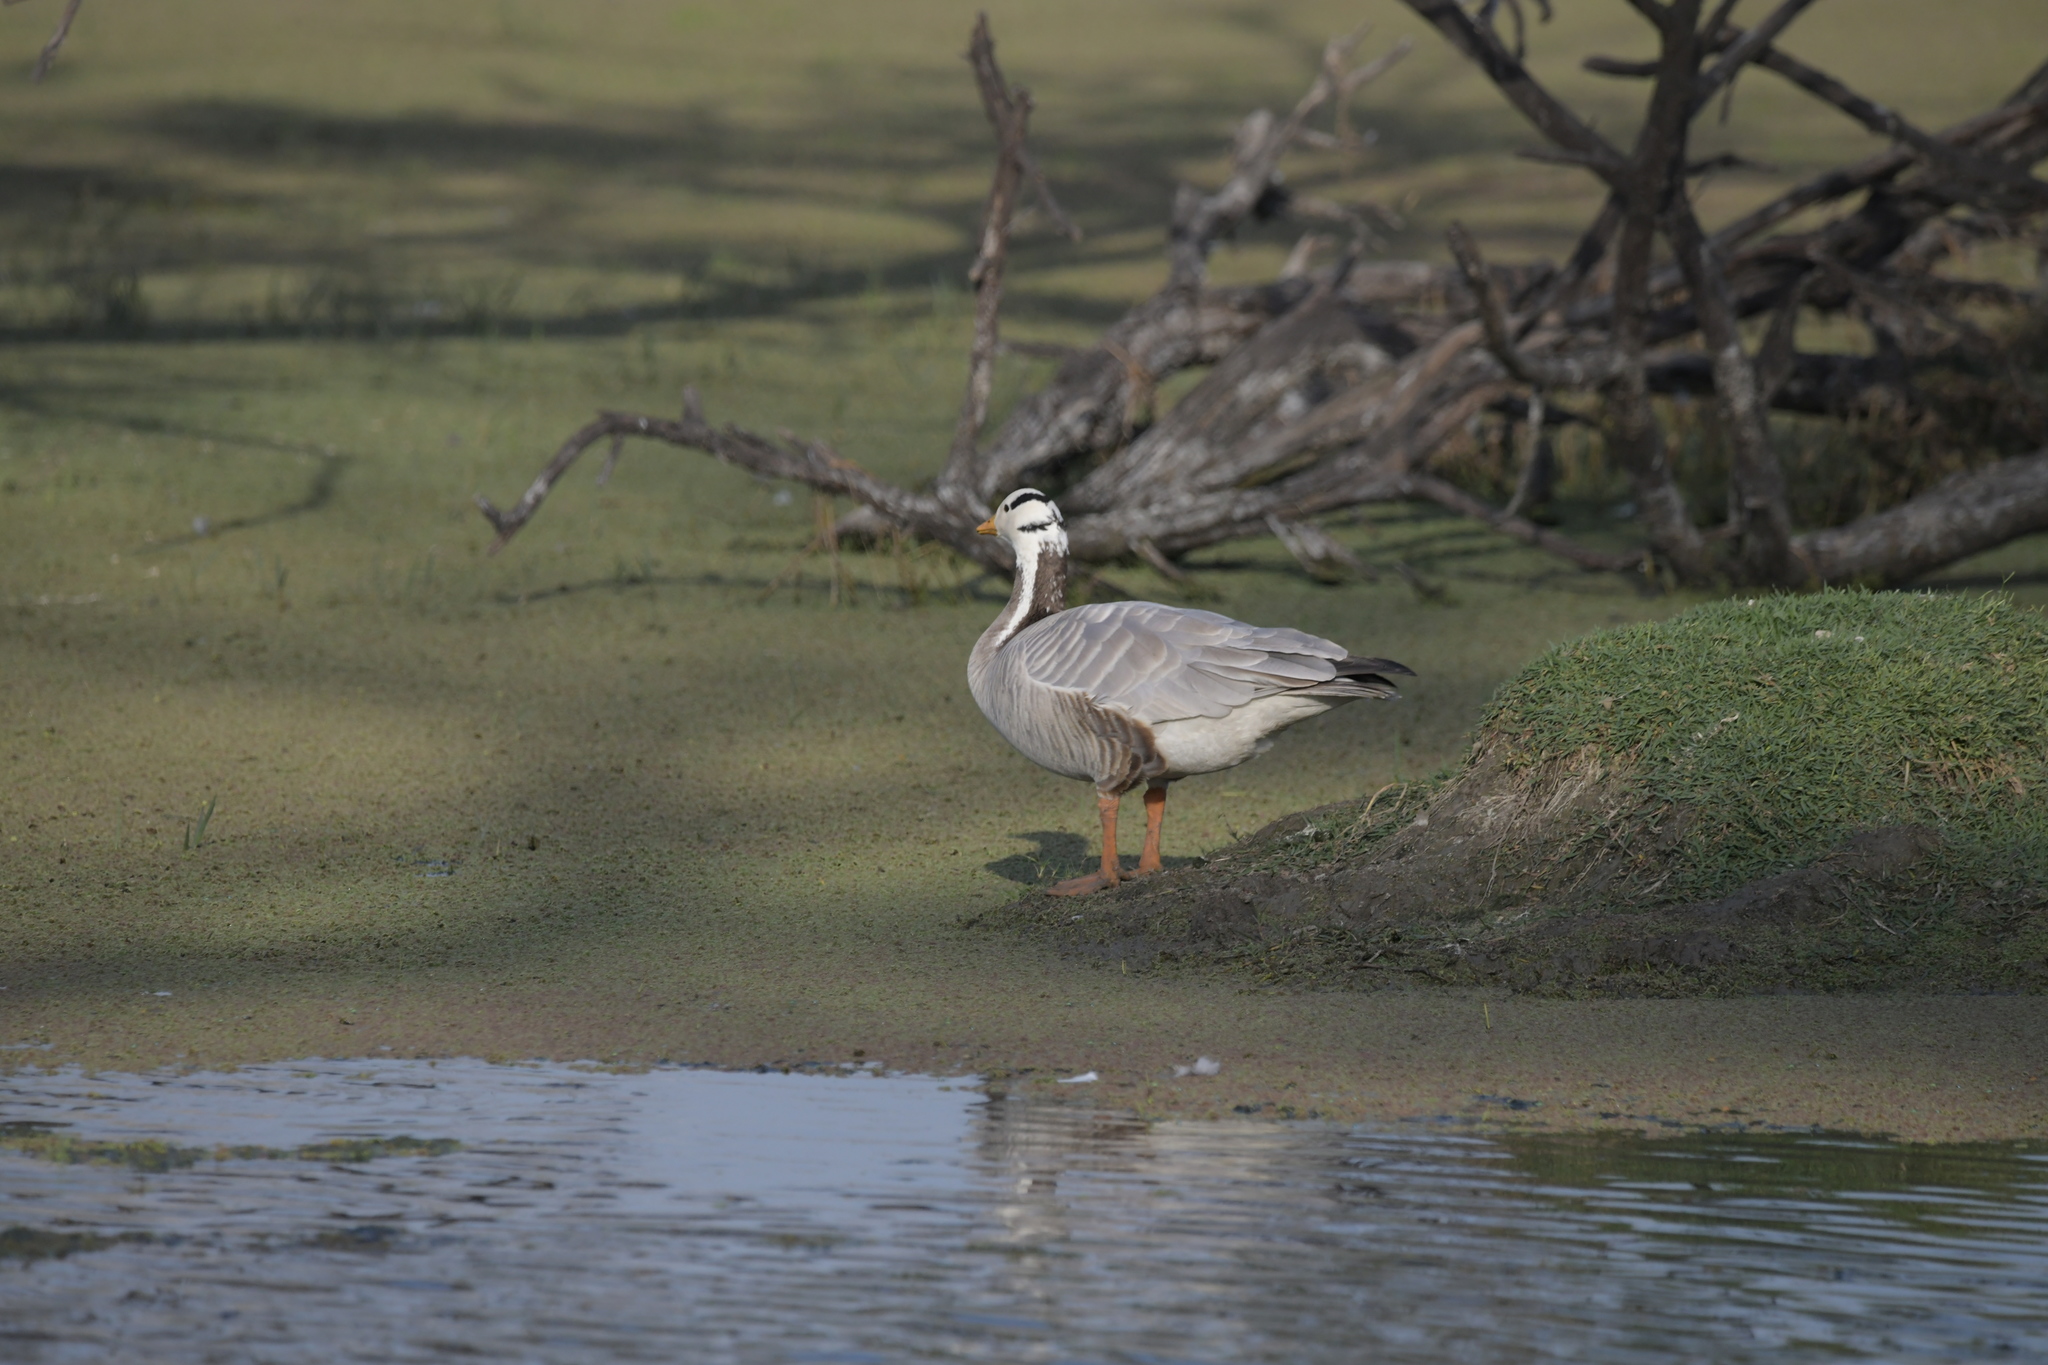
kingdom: Animalia
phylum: Chordata
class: Aves
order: Anseriformes
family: Anatidae
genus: Anser
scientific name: Anser indicus
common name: Bar-headed goose
